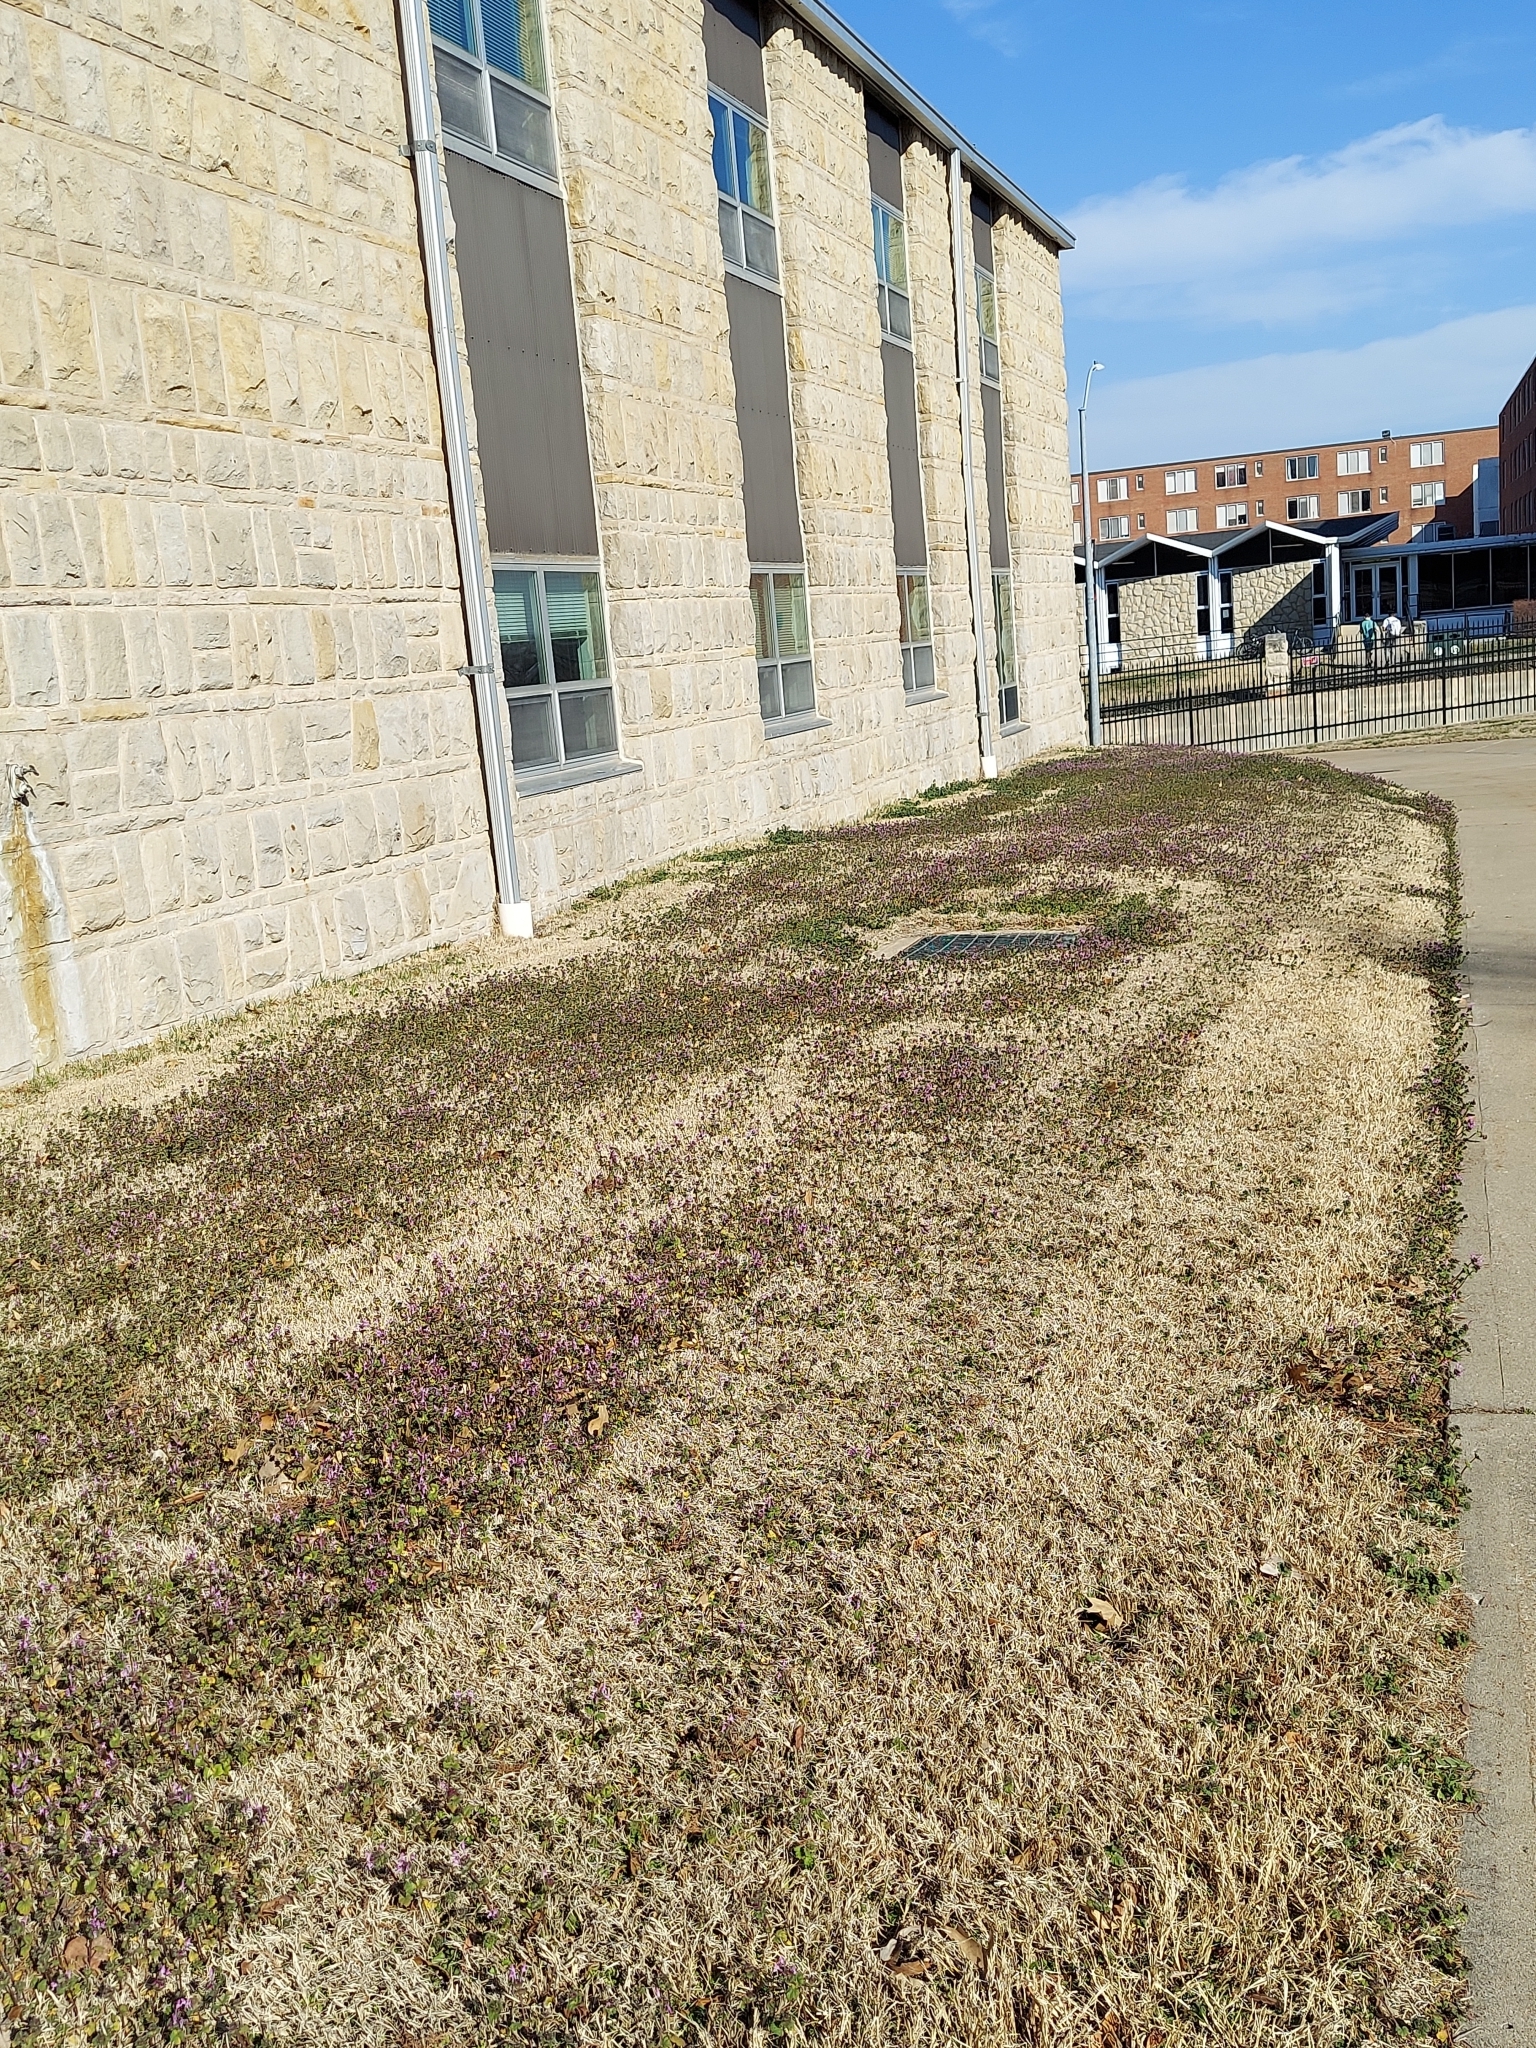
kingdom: Plantae
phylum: Tracheophyta
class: Magnoliopsida
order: Lamiales
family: Lamiaceae
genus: Lamium
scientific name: Lamium amplexicaule
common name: Henbit dead-nettle
